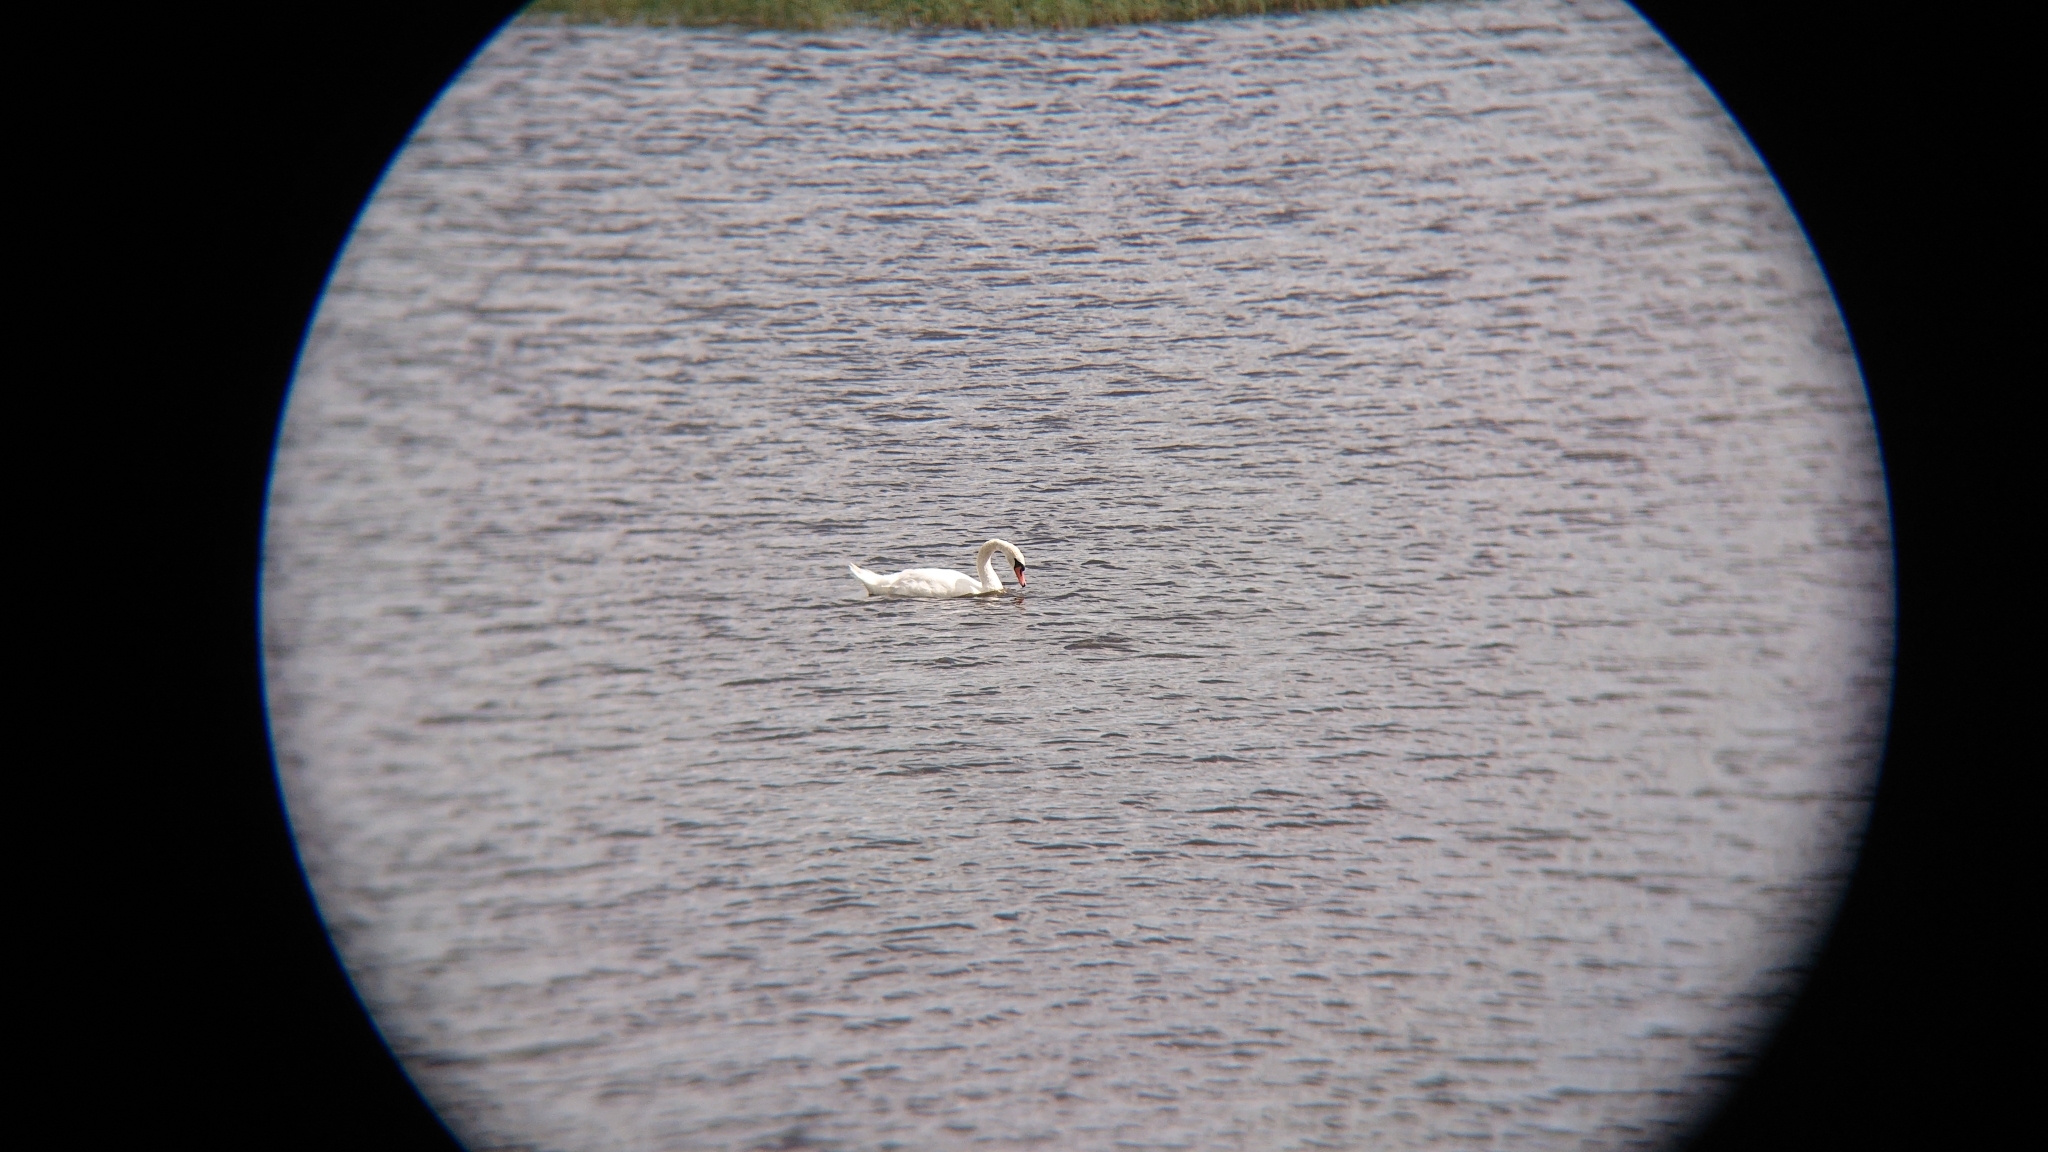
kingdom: Animalia
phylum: Chordata
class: Aves
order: Anseriformes
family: Anatidae
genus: Cygnus
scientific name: Cygnus olor
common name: Mute swan
